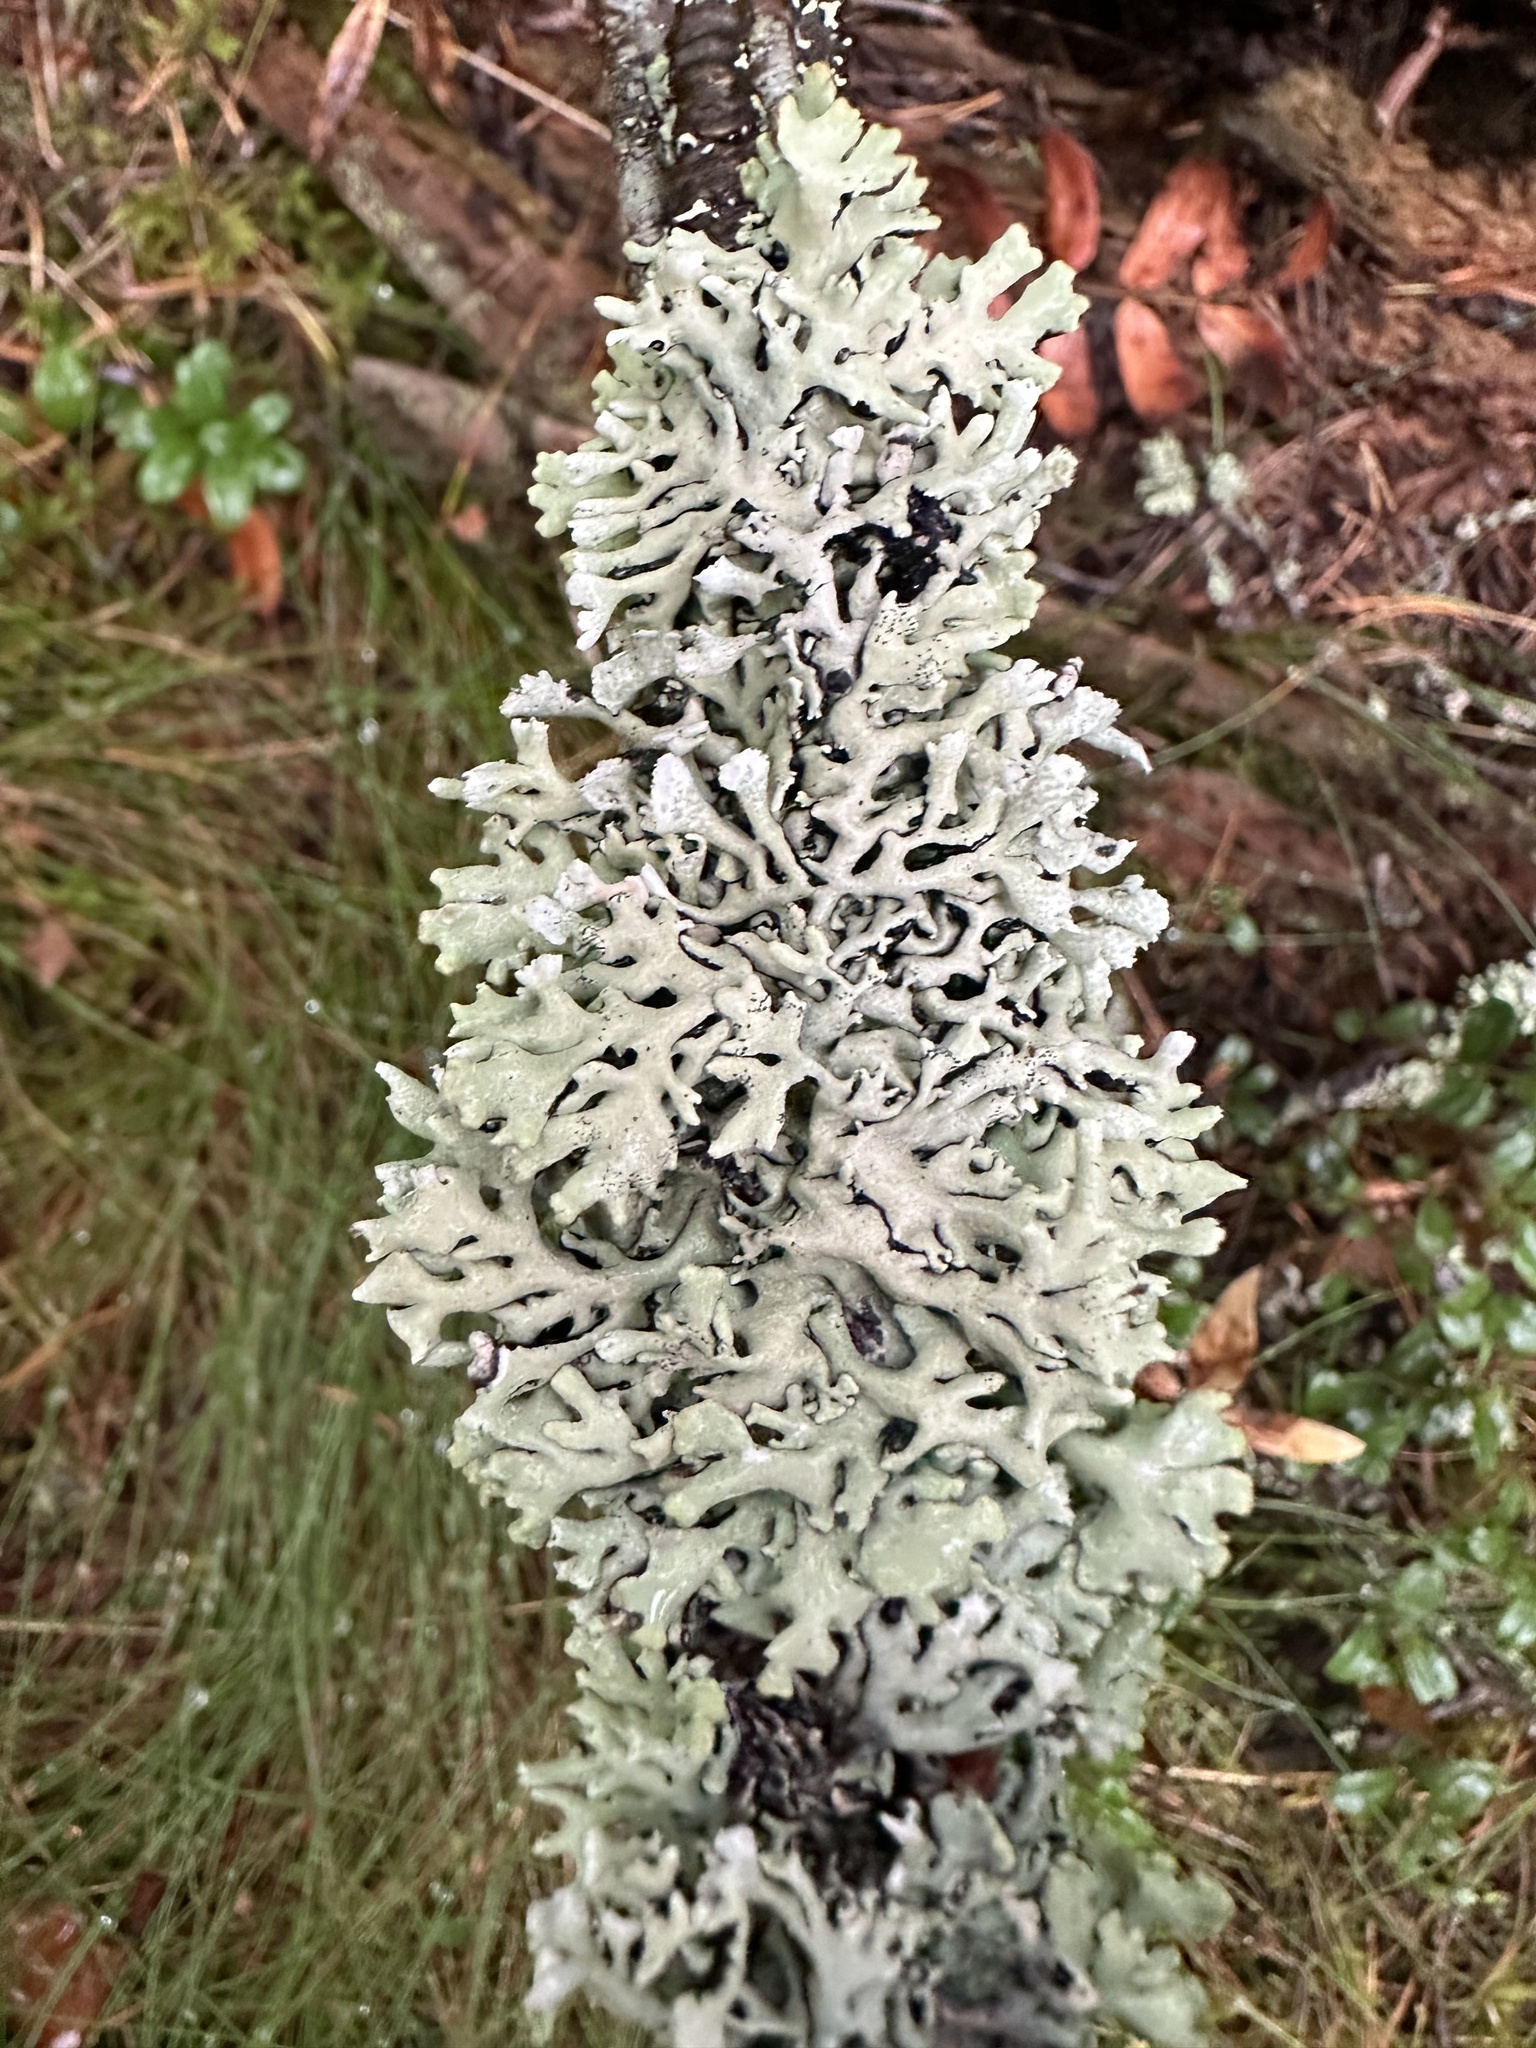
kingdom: Fungi
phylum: Ascomycota
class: Lecanoromycetes
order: Lecanorales
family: Parmeliaceae
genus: Hypogymnia
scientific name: Hypogymnia physodes
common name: Dark crottle
